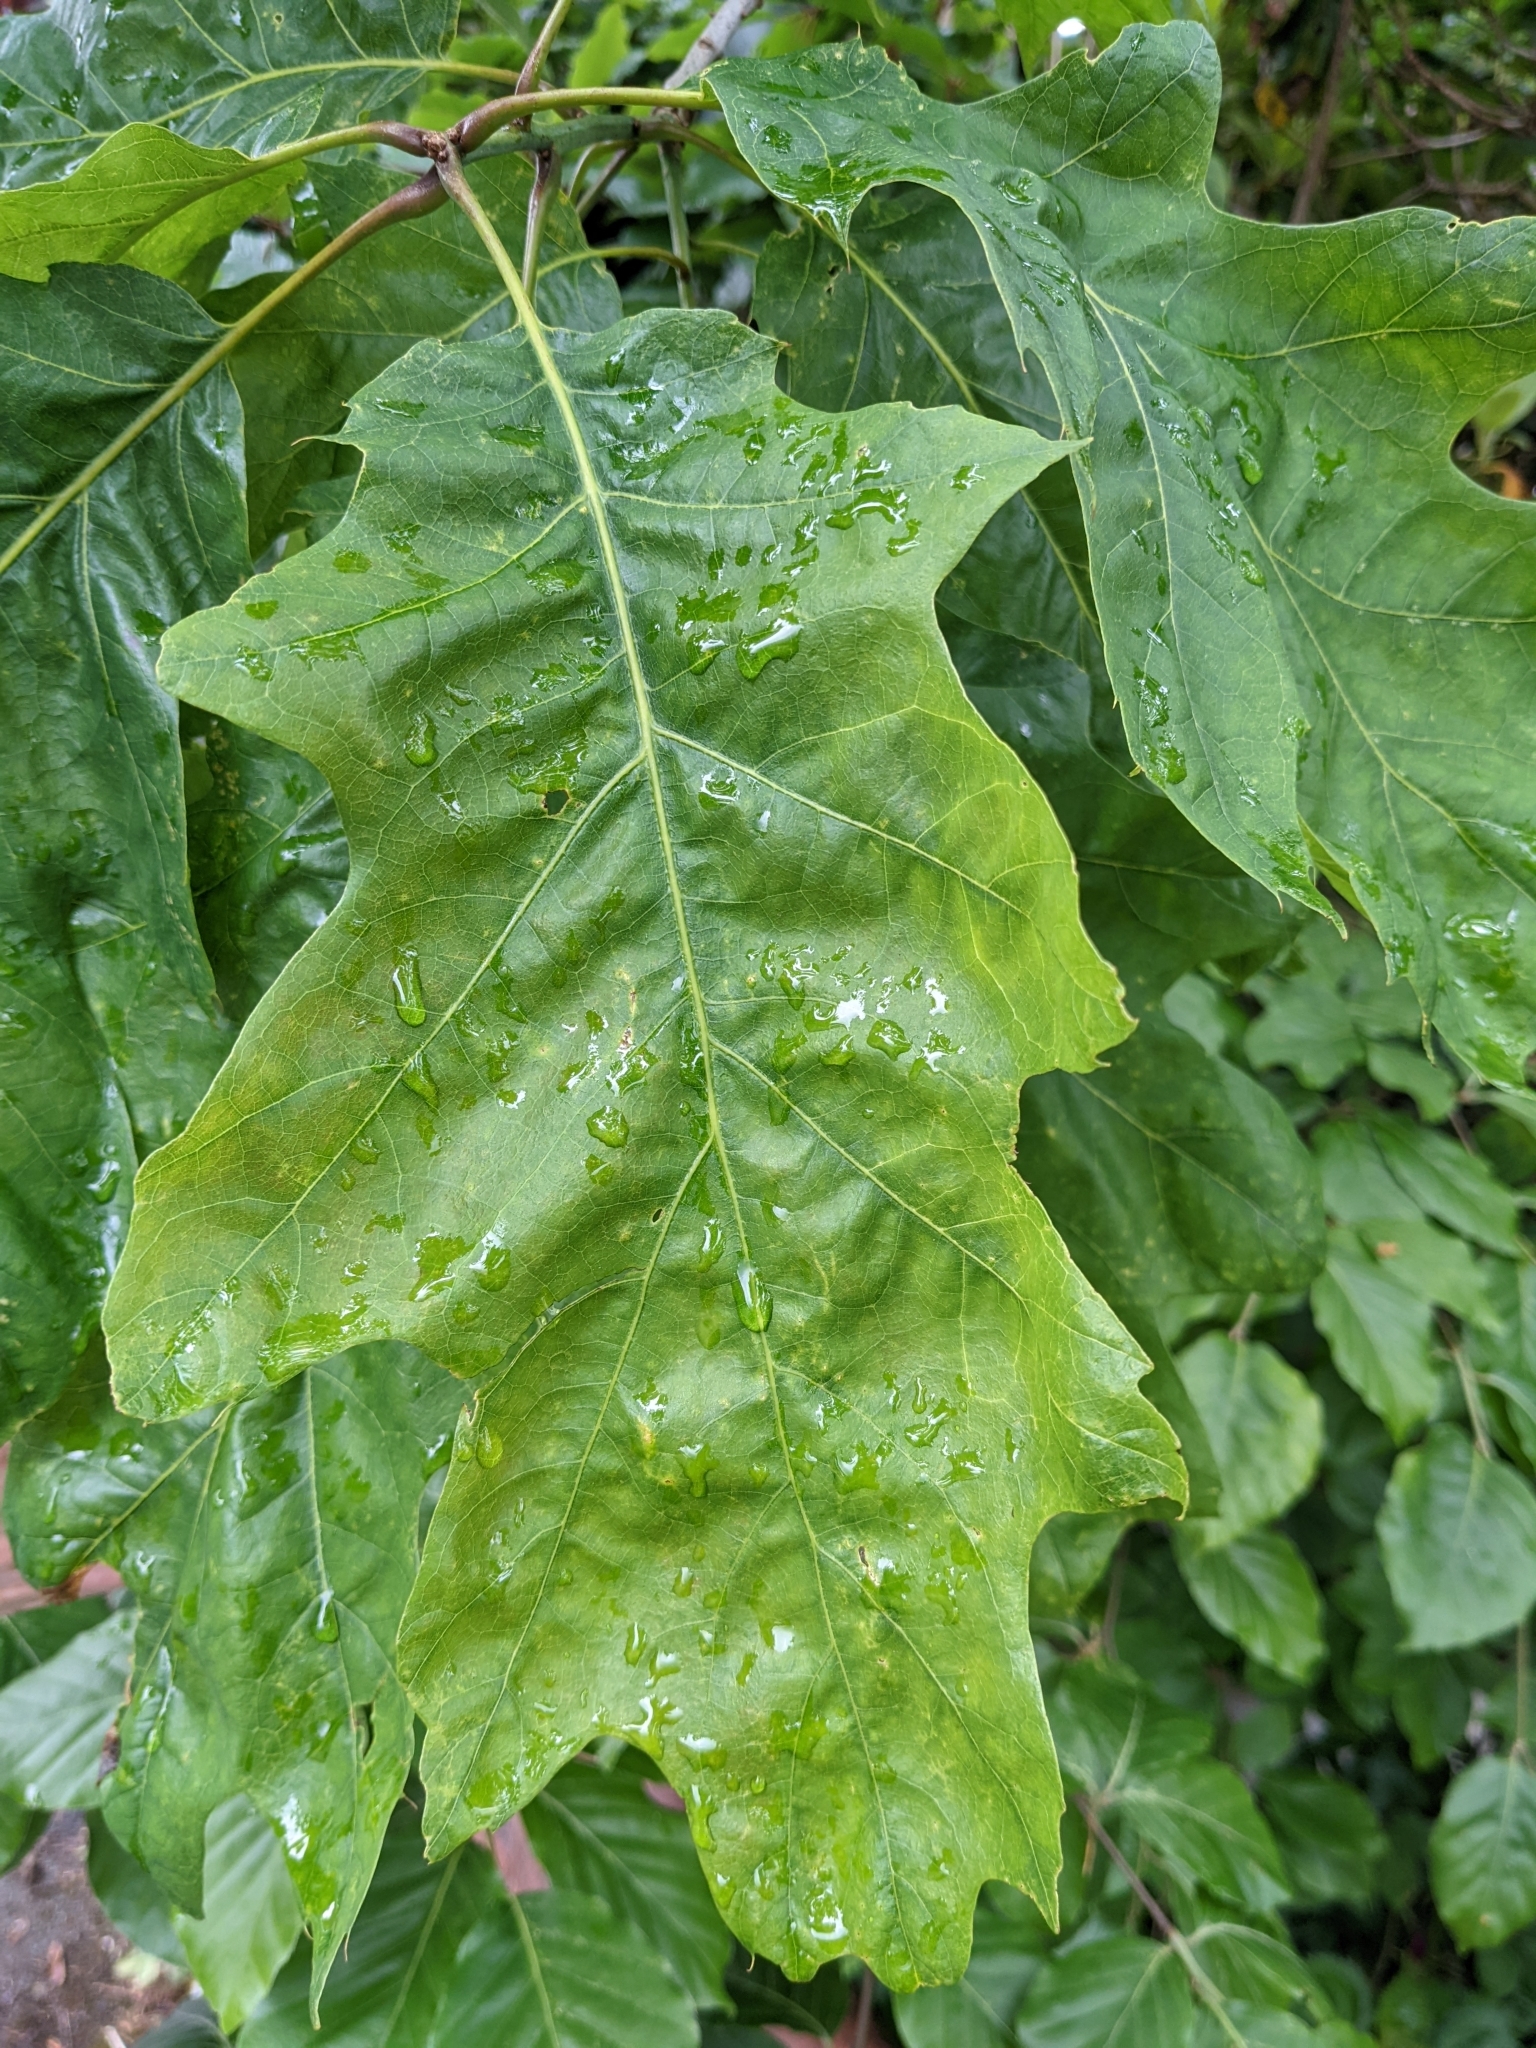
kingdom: Plantae
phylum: Tracheophyta
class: Magnoliopsida
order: Fagales
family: Fagaceae
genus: Quercus
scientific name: Quercus rubra
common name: Red oak
